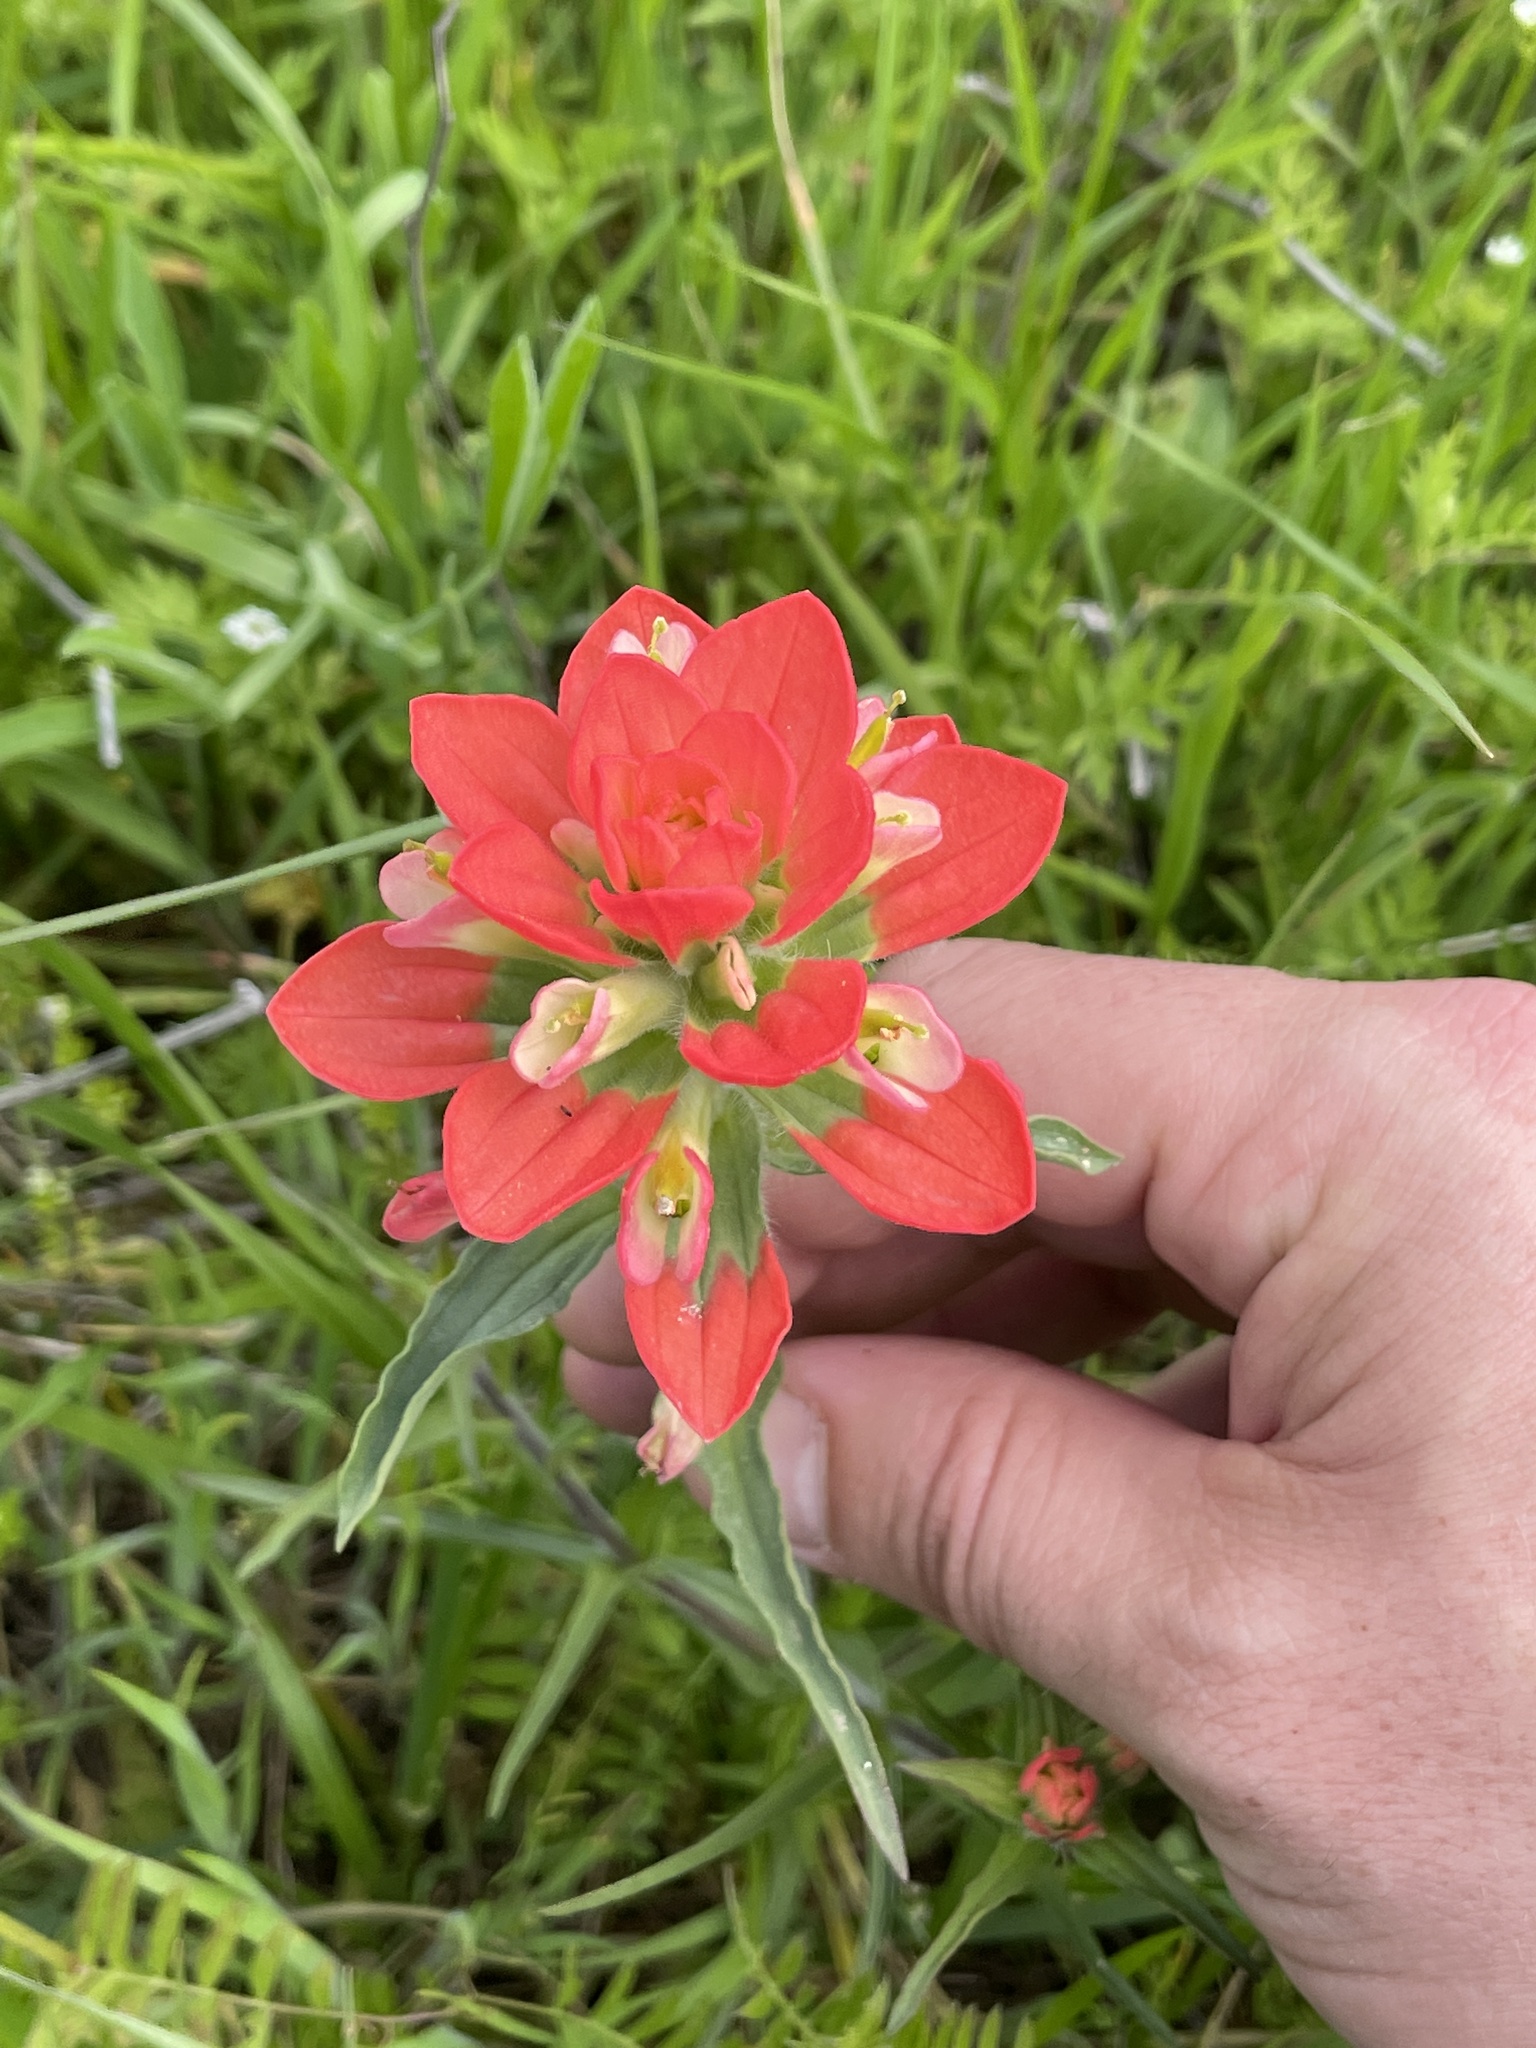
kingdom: Plantae
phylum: Tracheophyta
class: Magnoliopsida
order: Lamiales
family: Orobanchaceae
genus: Castilleja
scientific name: Castilleja indivisa
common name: Texas paintbrush
